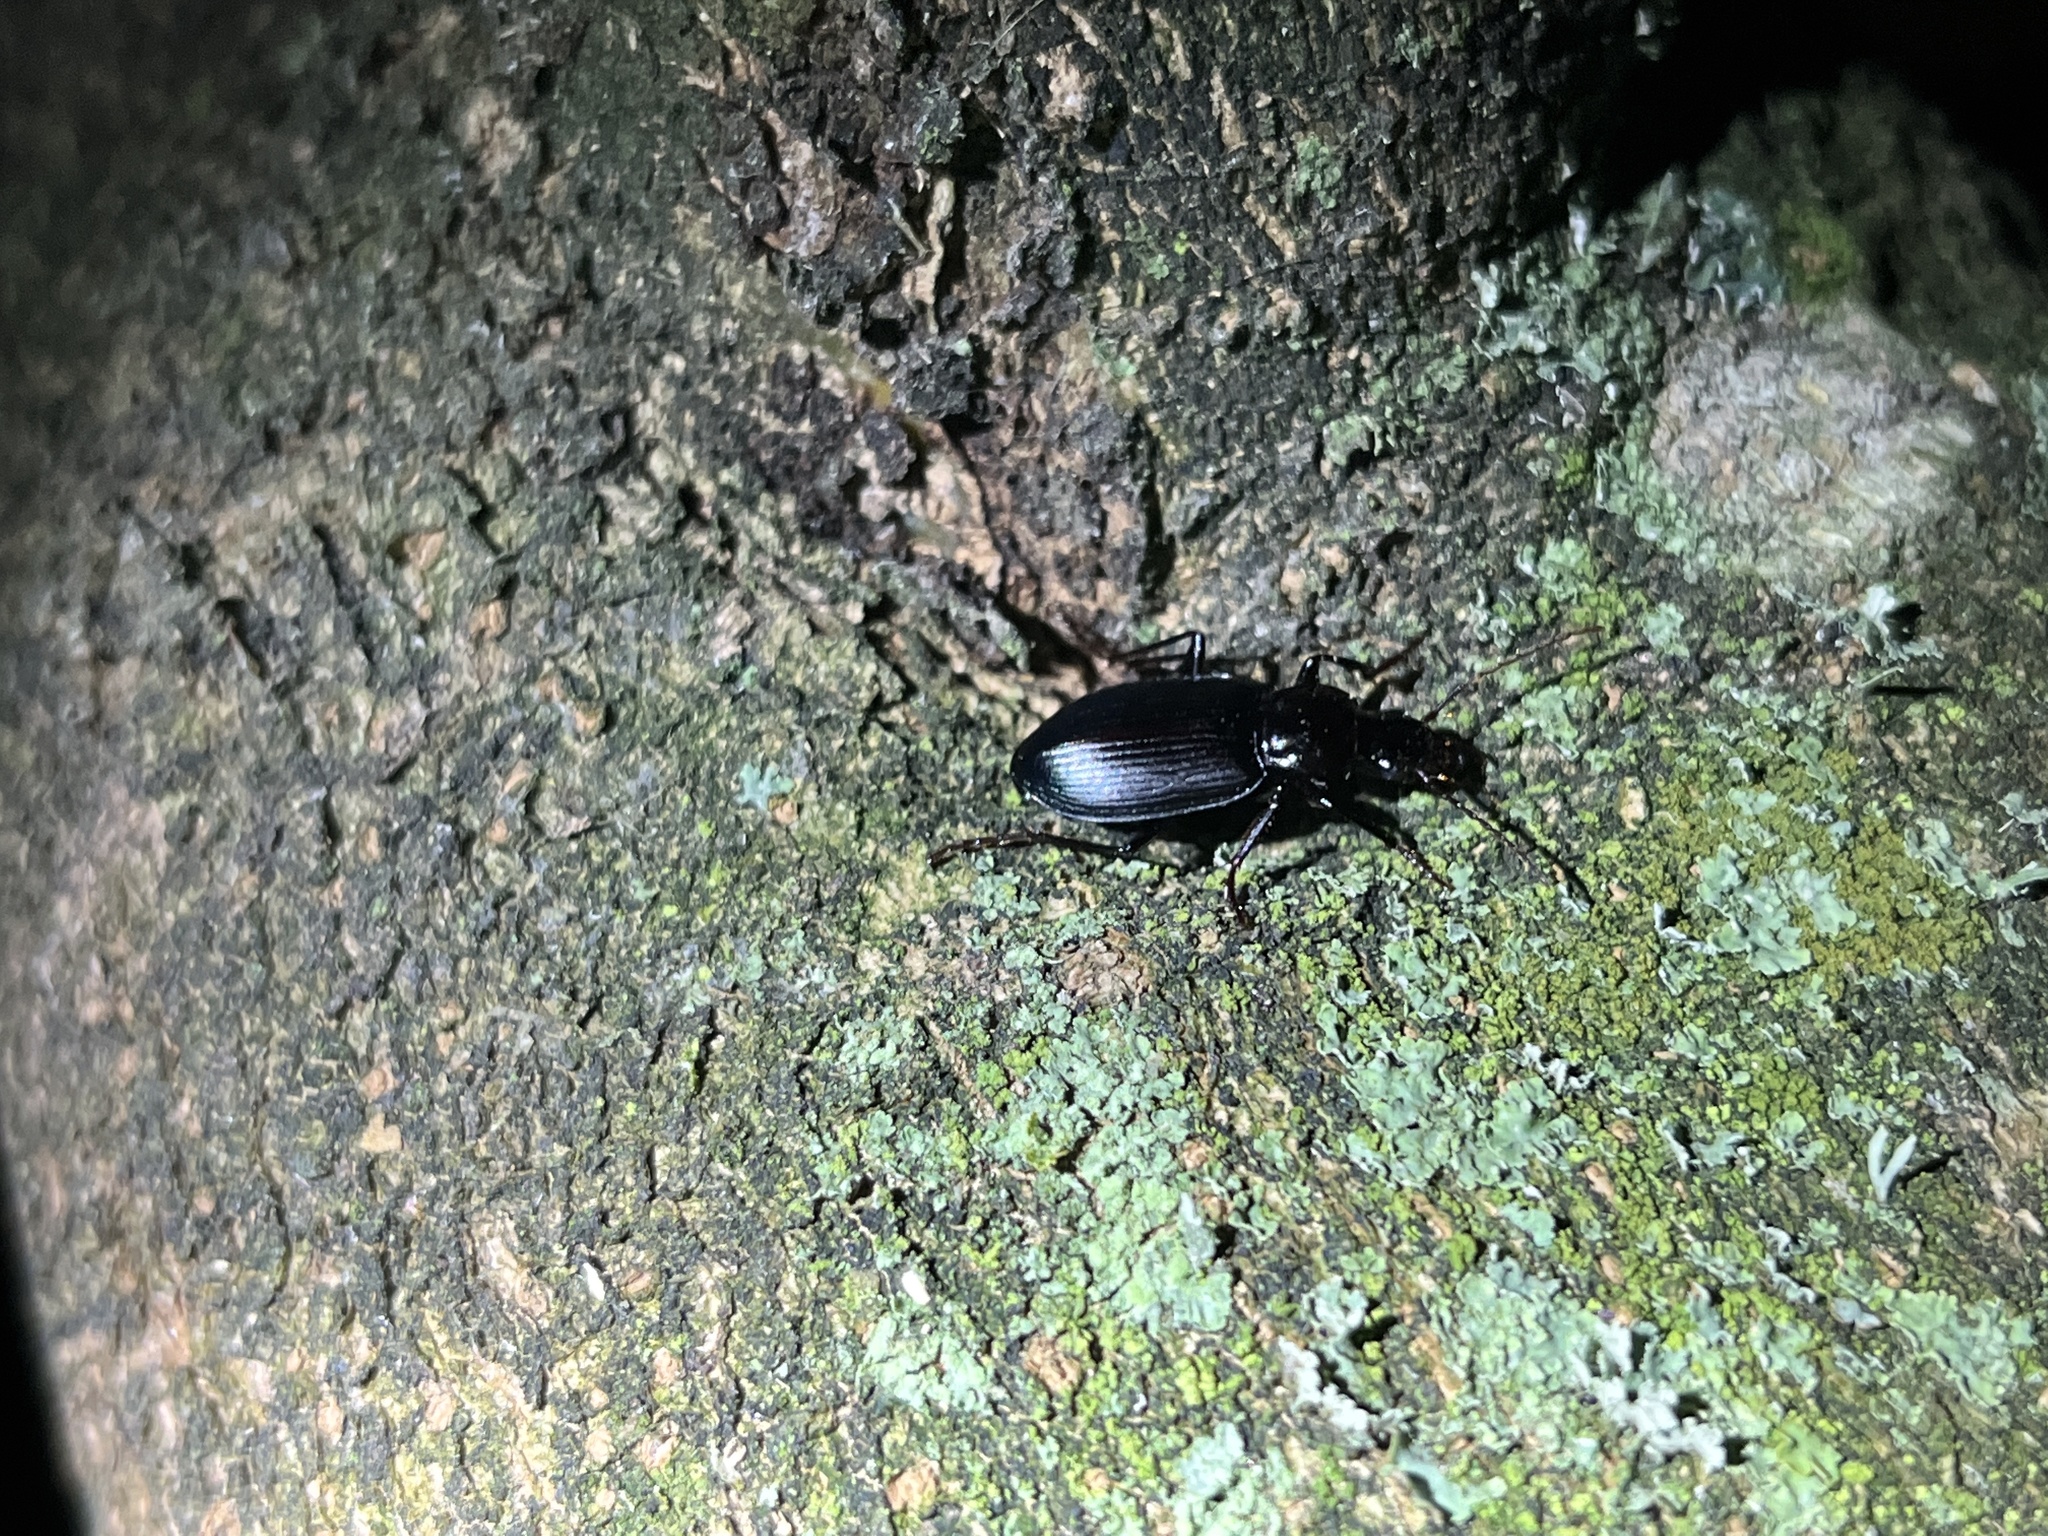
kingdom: Animalia
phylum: Arthropoda
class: Insecta
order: Coleoptera
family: Carabidae
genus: Laemostenus
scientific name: Laemostenus complanatus
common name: Cosmopolitan ground beetle
